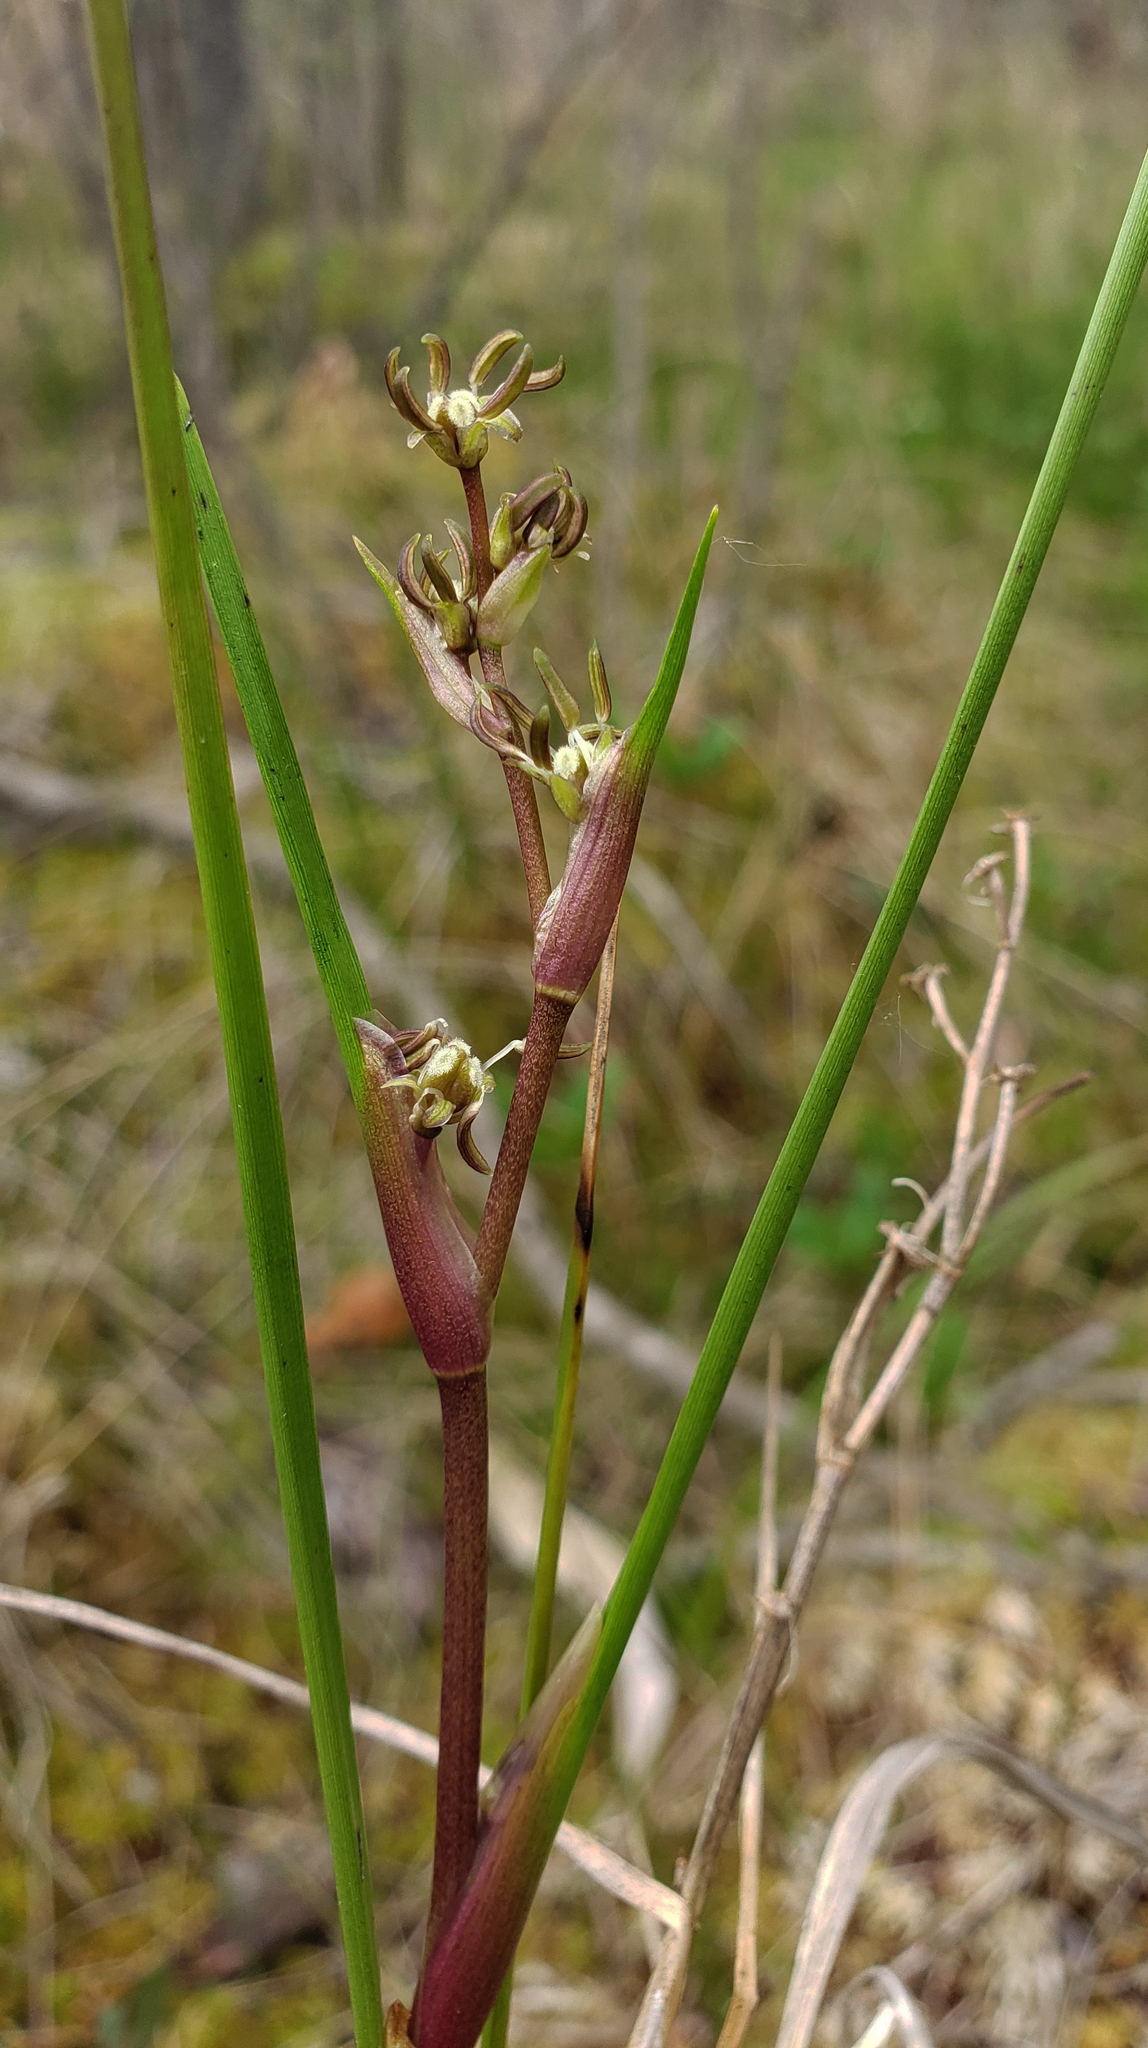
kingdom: Plantae
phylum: Tracheophyta
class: Liliopsida
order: Alismatales
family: Scheuchzeriaceae
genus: Scheuchzeria
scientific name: Scheuchzeria palustris
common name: Rannoch-rush
